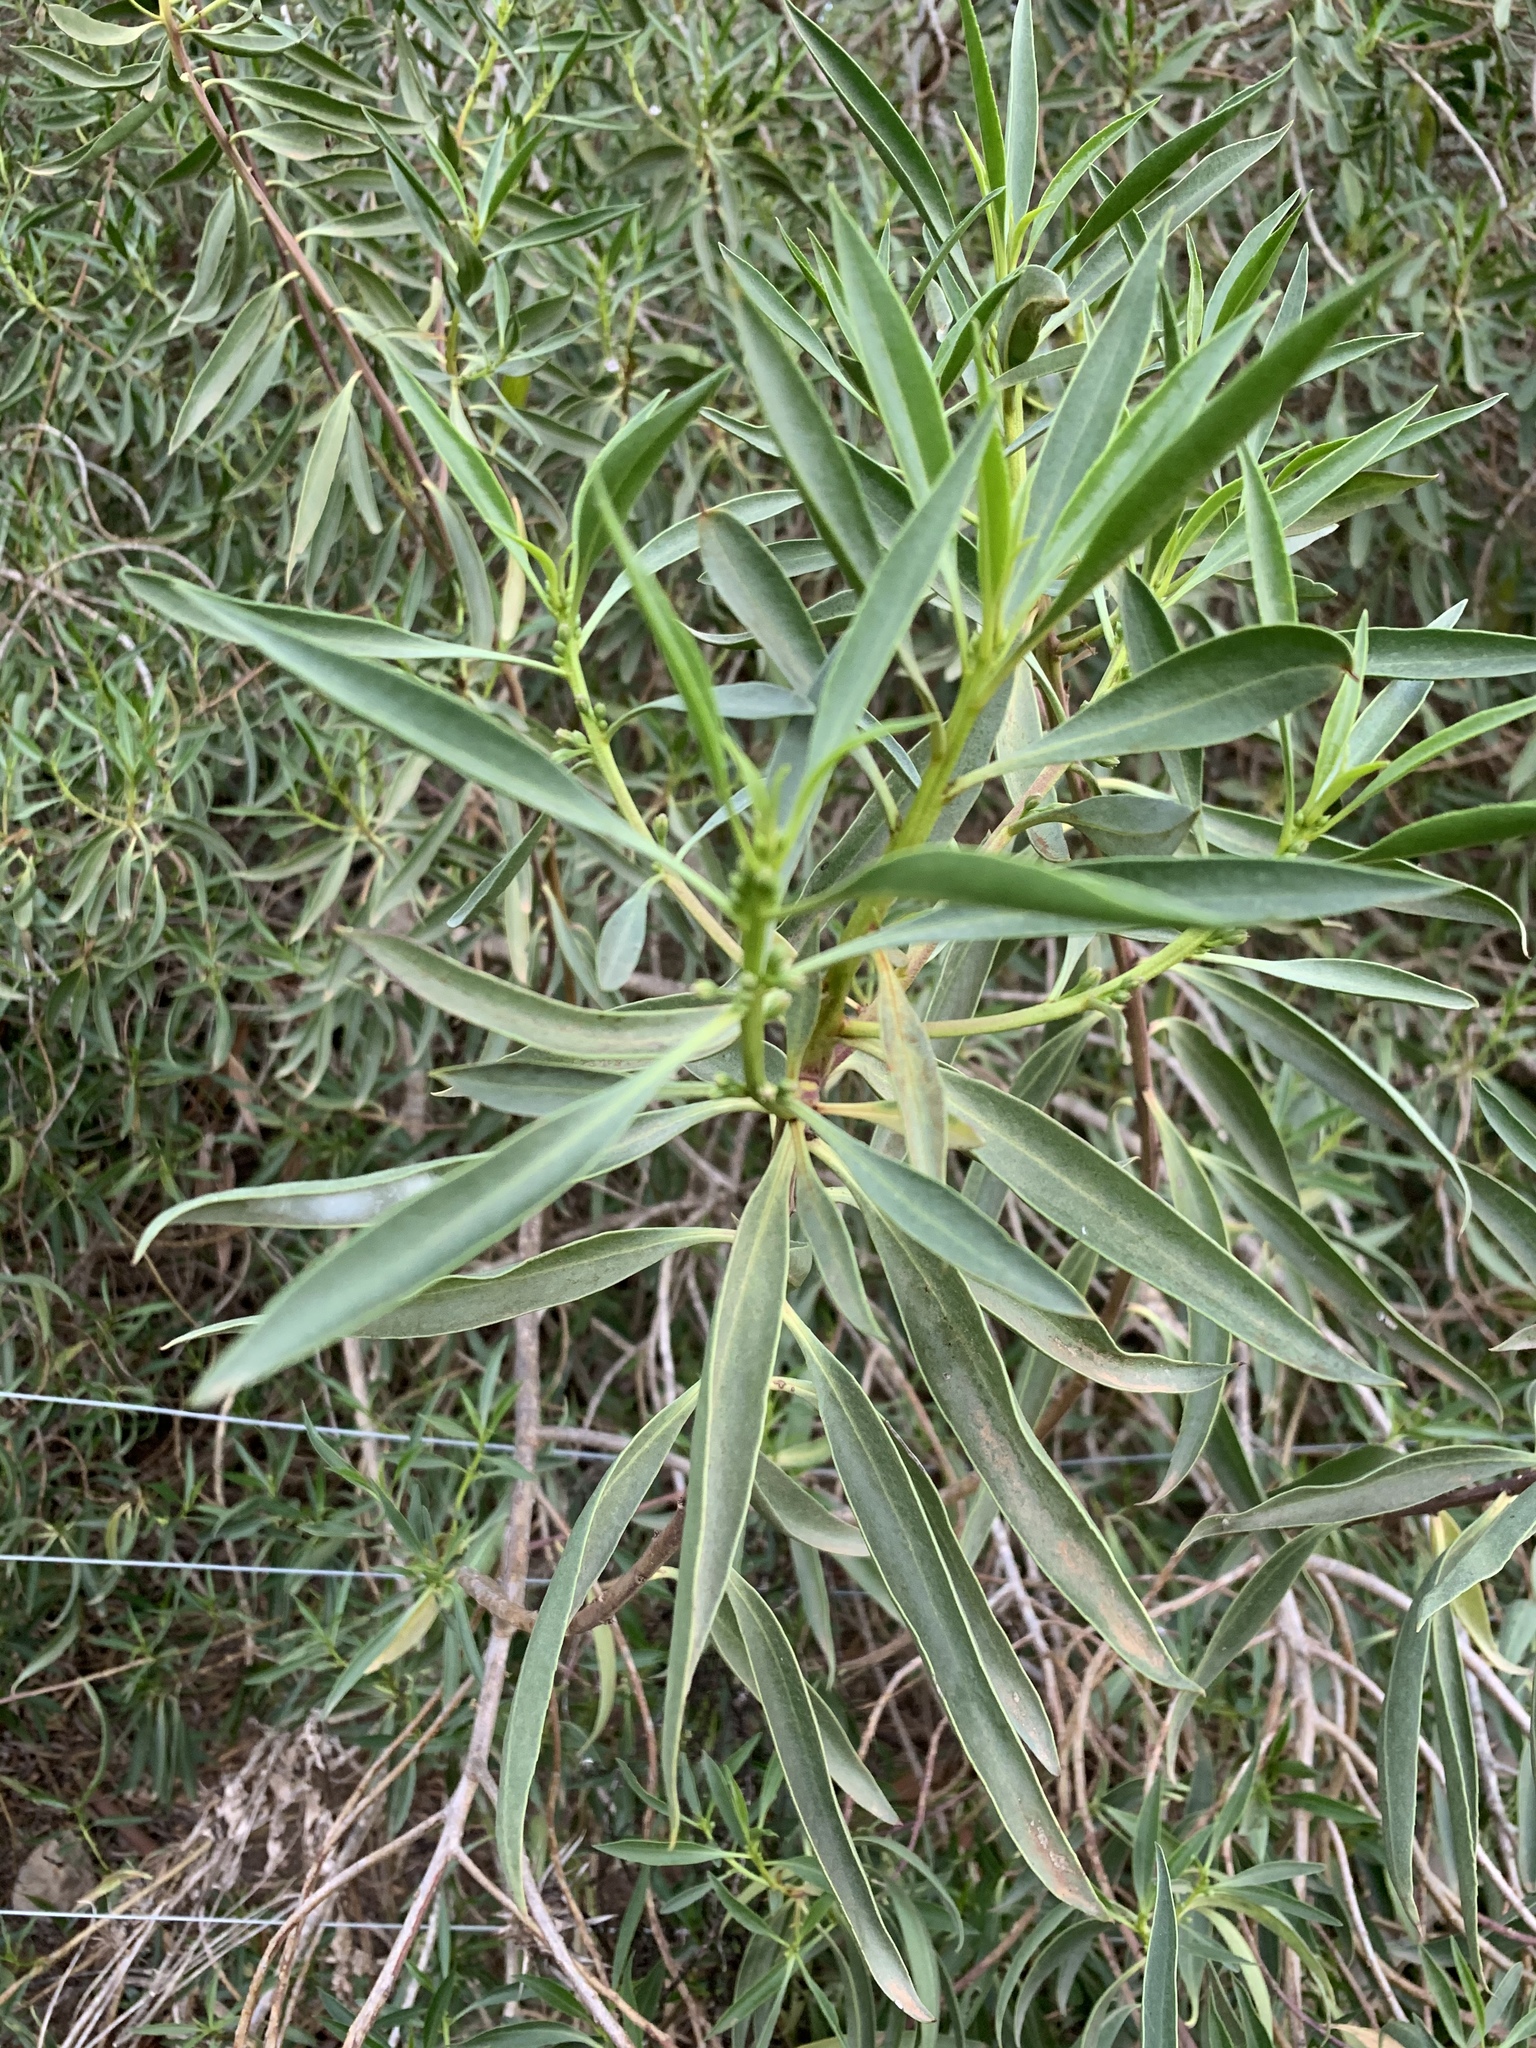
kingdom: Plantae
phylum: Tracheophyta
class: Magnoliopsida
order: Lamiales
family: Scrophulariaceae
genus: Myoporum
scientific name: Myoporum montanum
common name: Waterbush
